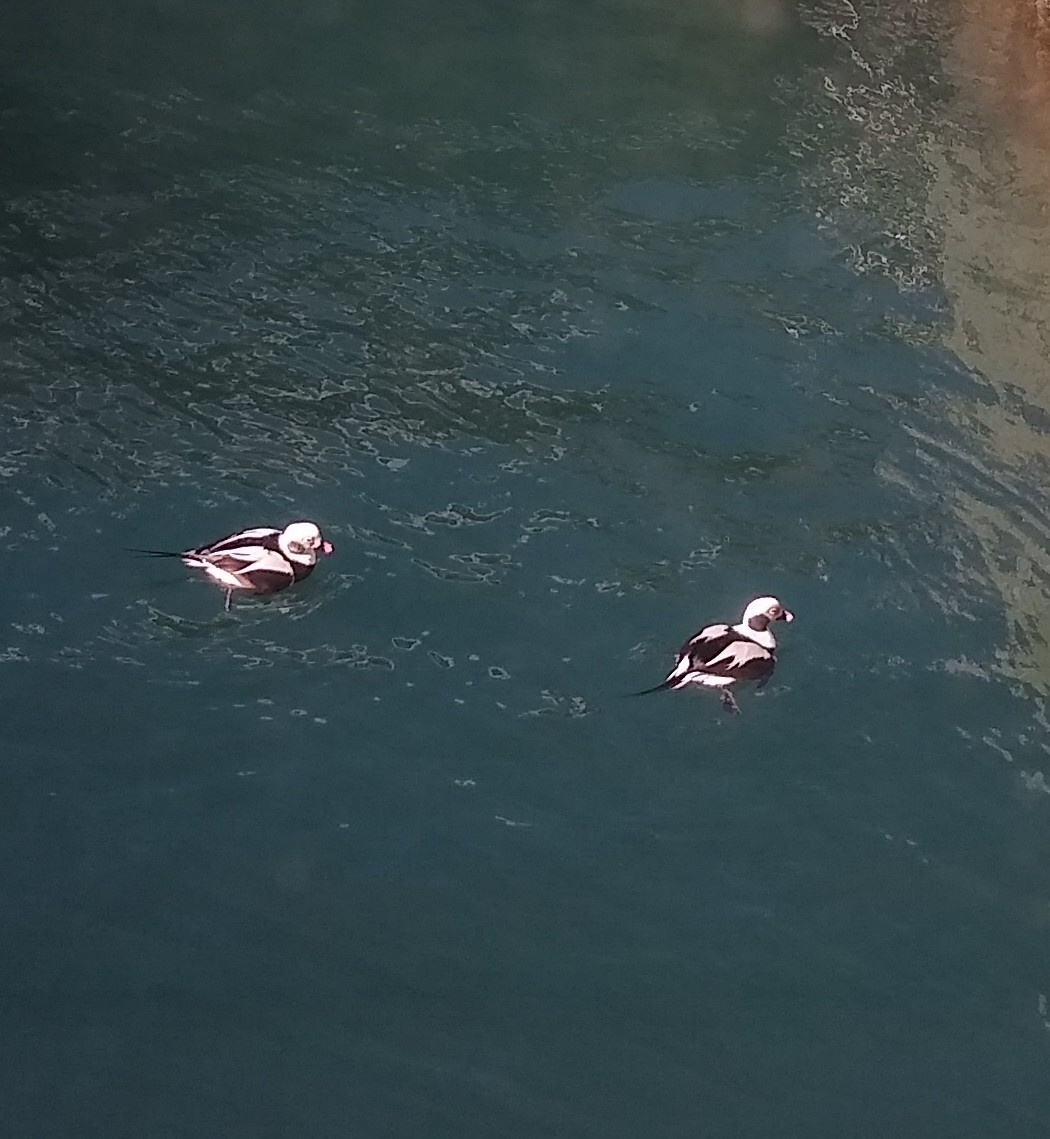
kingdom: Animalia
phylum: Chordata
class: Aves
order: Anseriformes
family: Anatidae
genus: Clangula
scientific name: Clangula hyemalis
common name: Long-tailed duck
